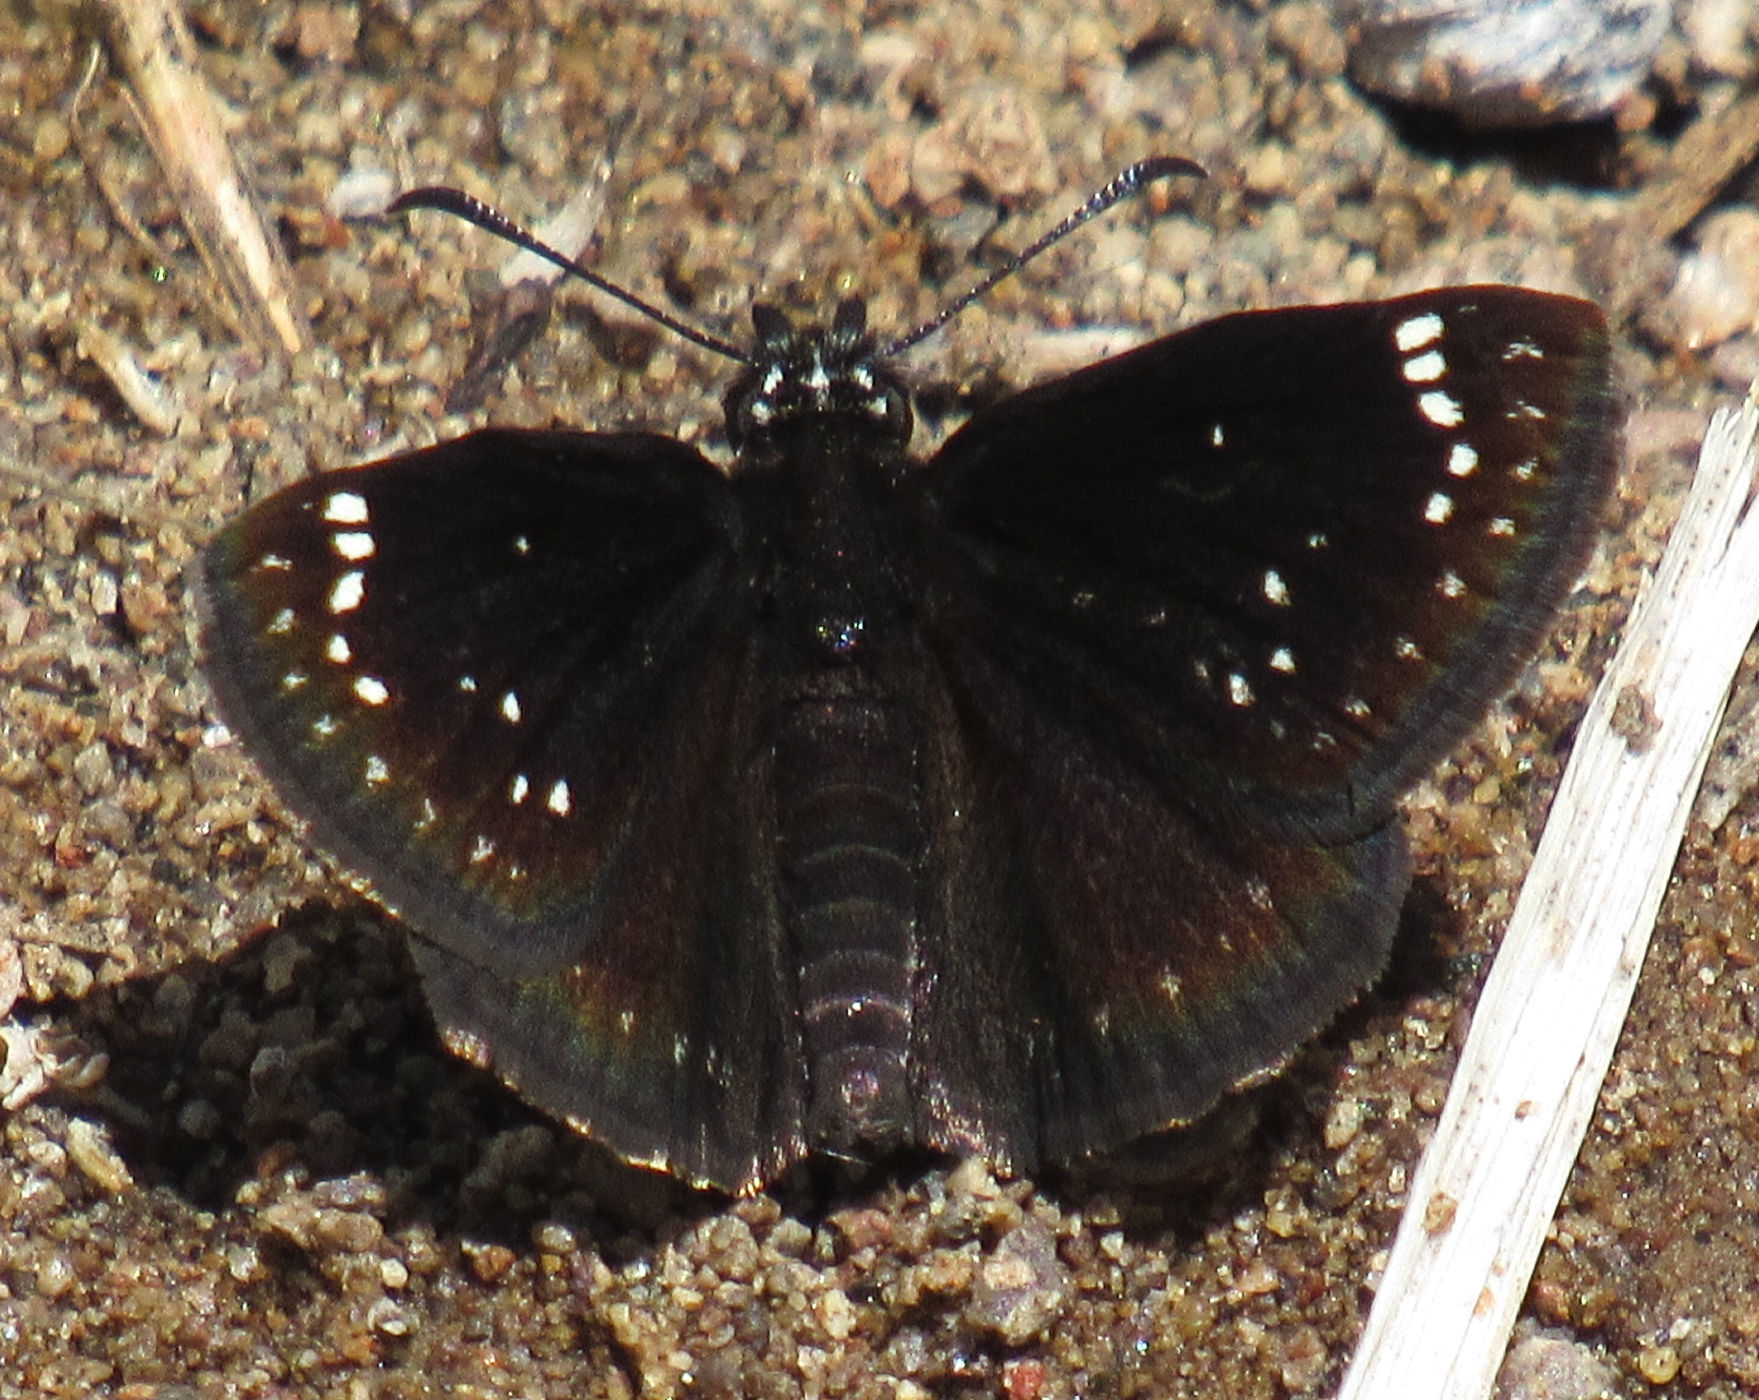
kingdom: Animalia
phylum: Arthropoda
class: Insecta
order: Lepidoptera
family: Hesperiidae
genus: Pholisora
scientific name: Pholisora catullus
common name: Common sootywing
